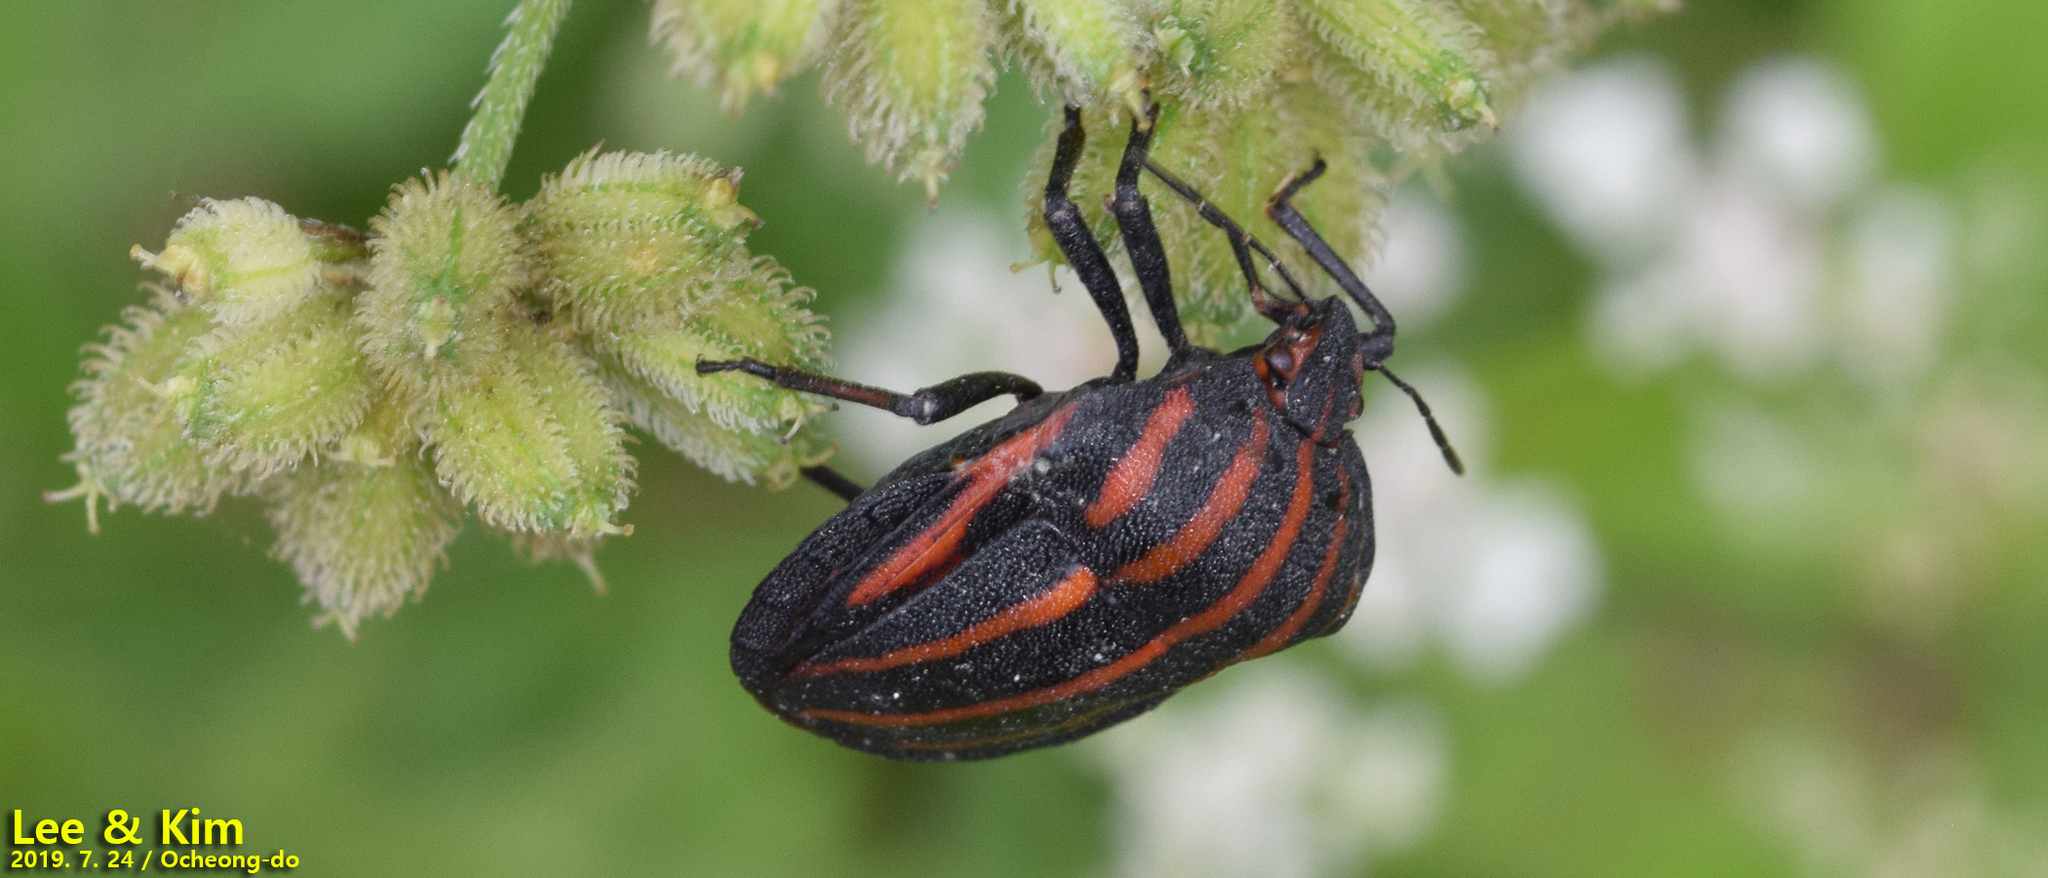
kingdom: Animalia
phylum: Arthropoda
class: Insecta
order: Hemiptera
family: Pentatomidae
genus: Graphosoma
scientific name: Graphosoma rubrolineatum
